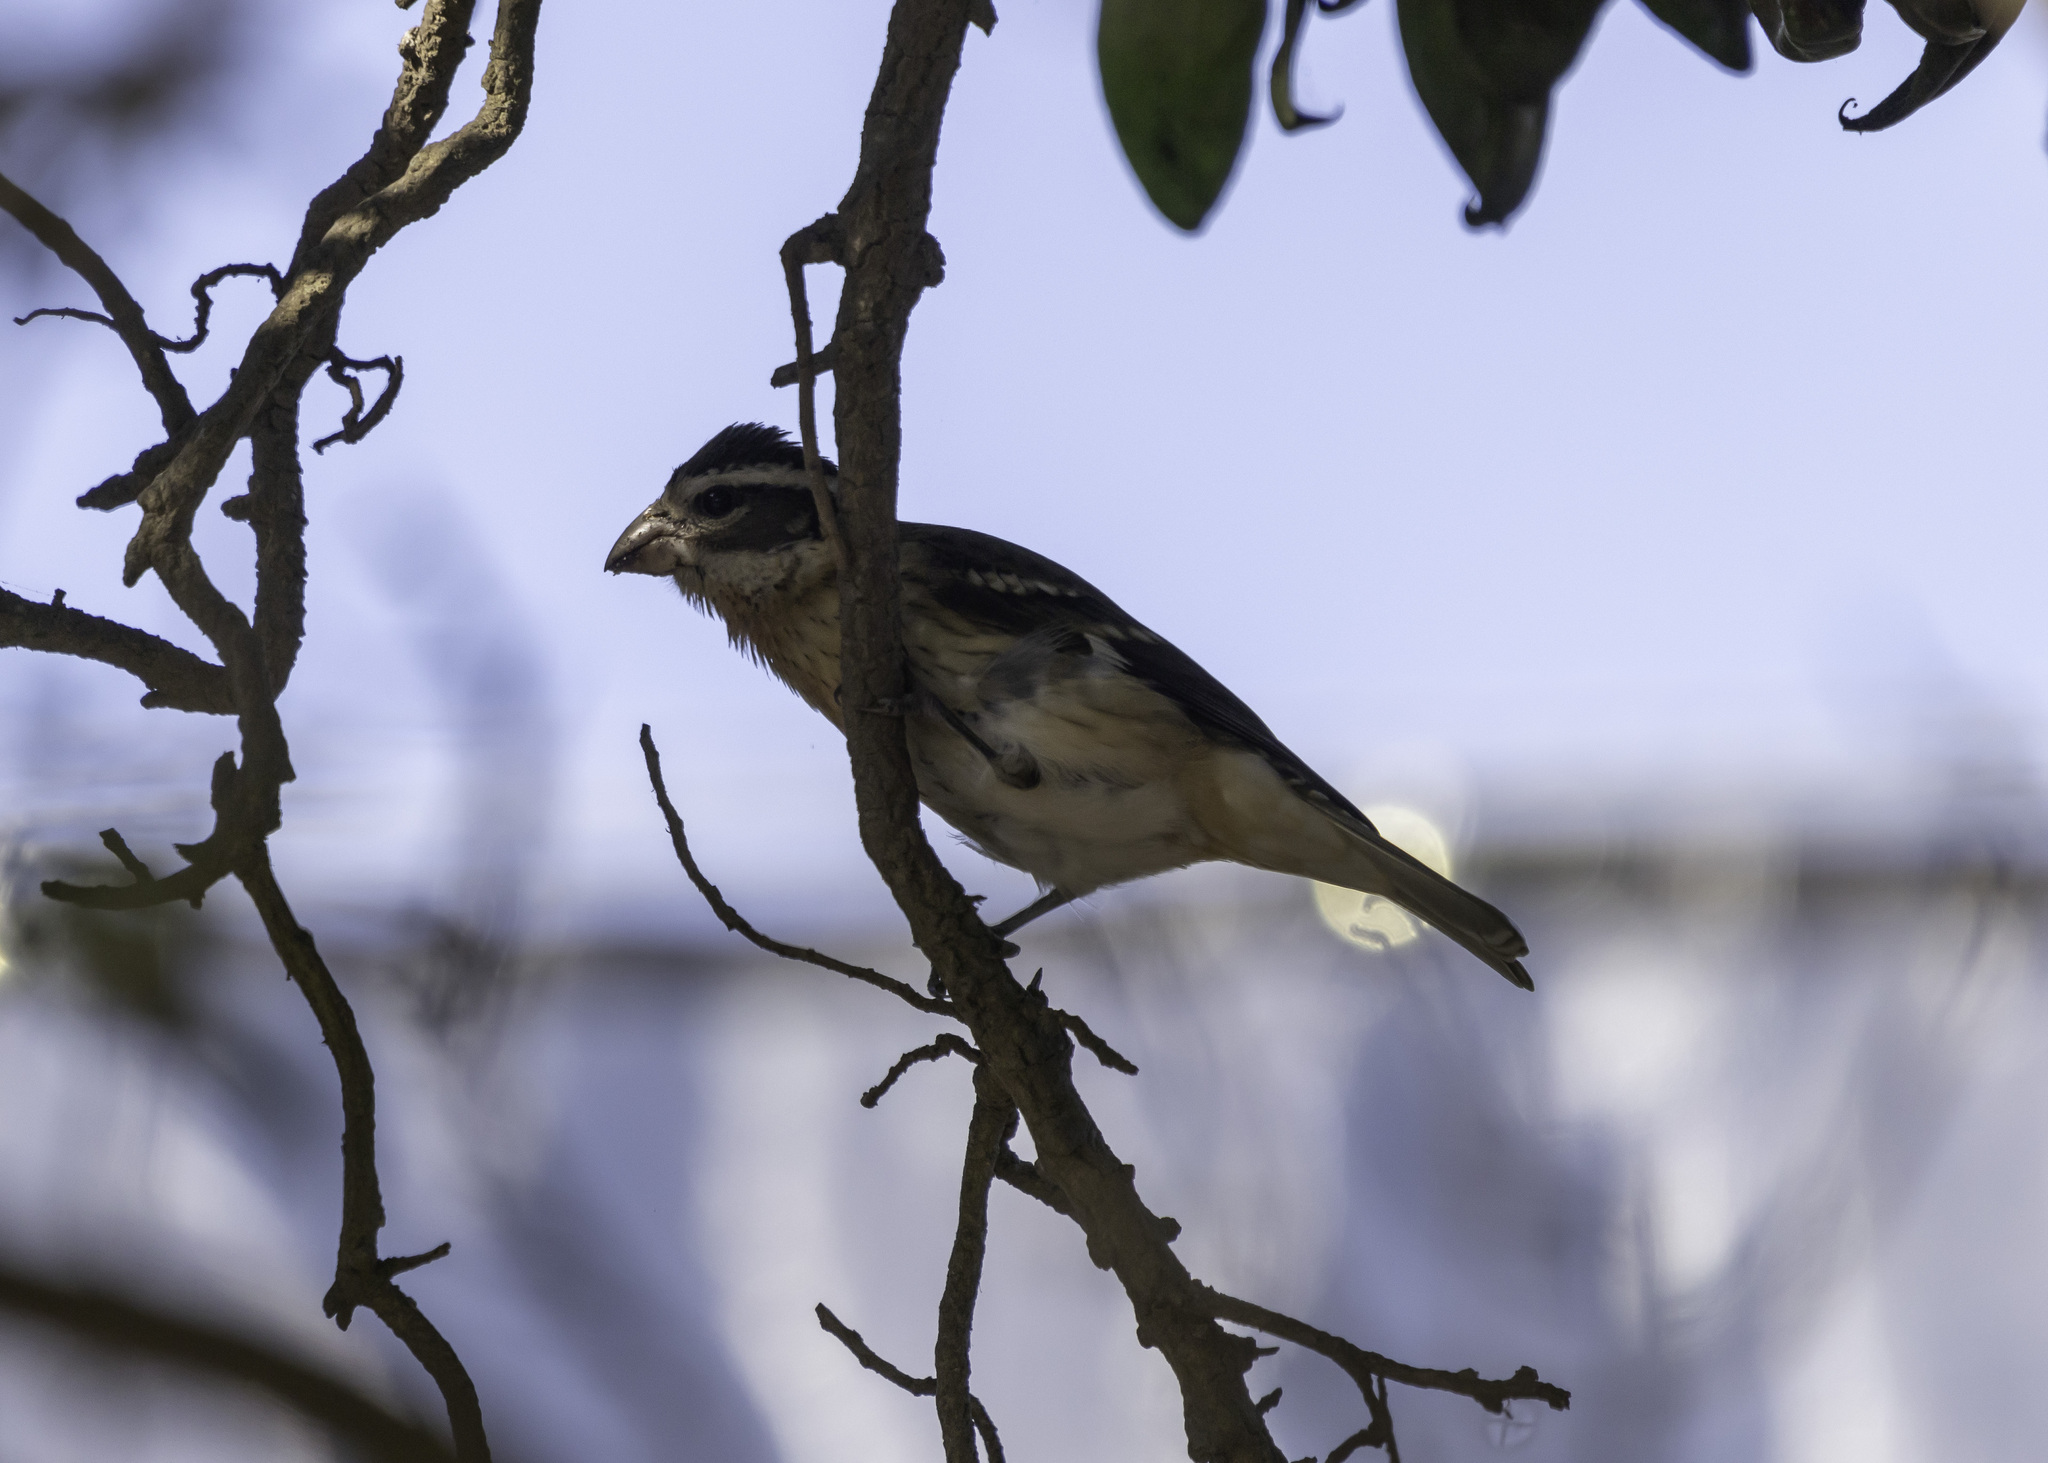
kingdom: Animalia
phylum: Chordata
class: Aves
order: Passeriformes
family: Cardinalidae
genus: Pheucticus
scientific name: Pheucticus ludovicianus
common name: Rose-breasted grosbeak
